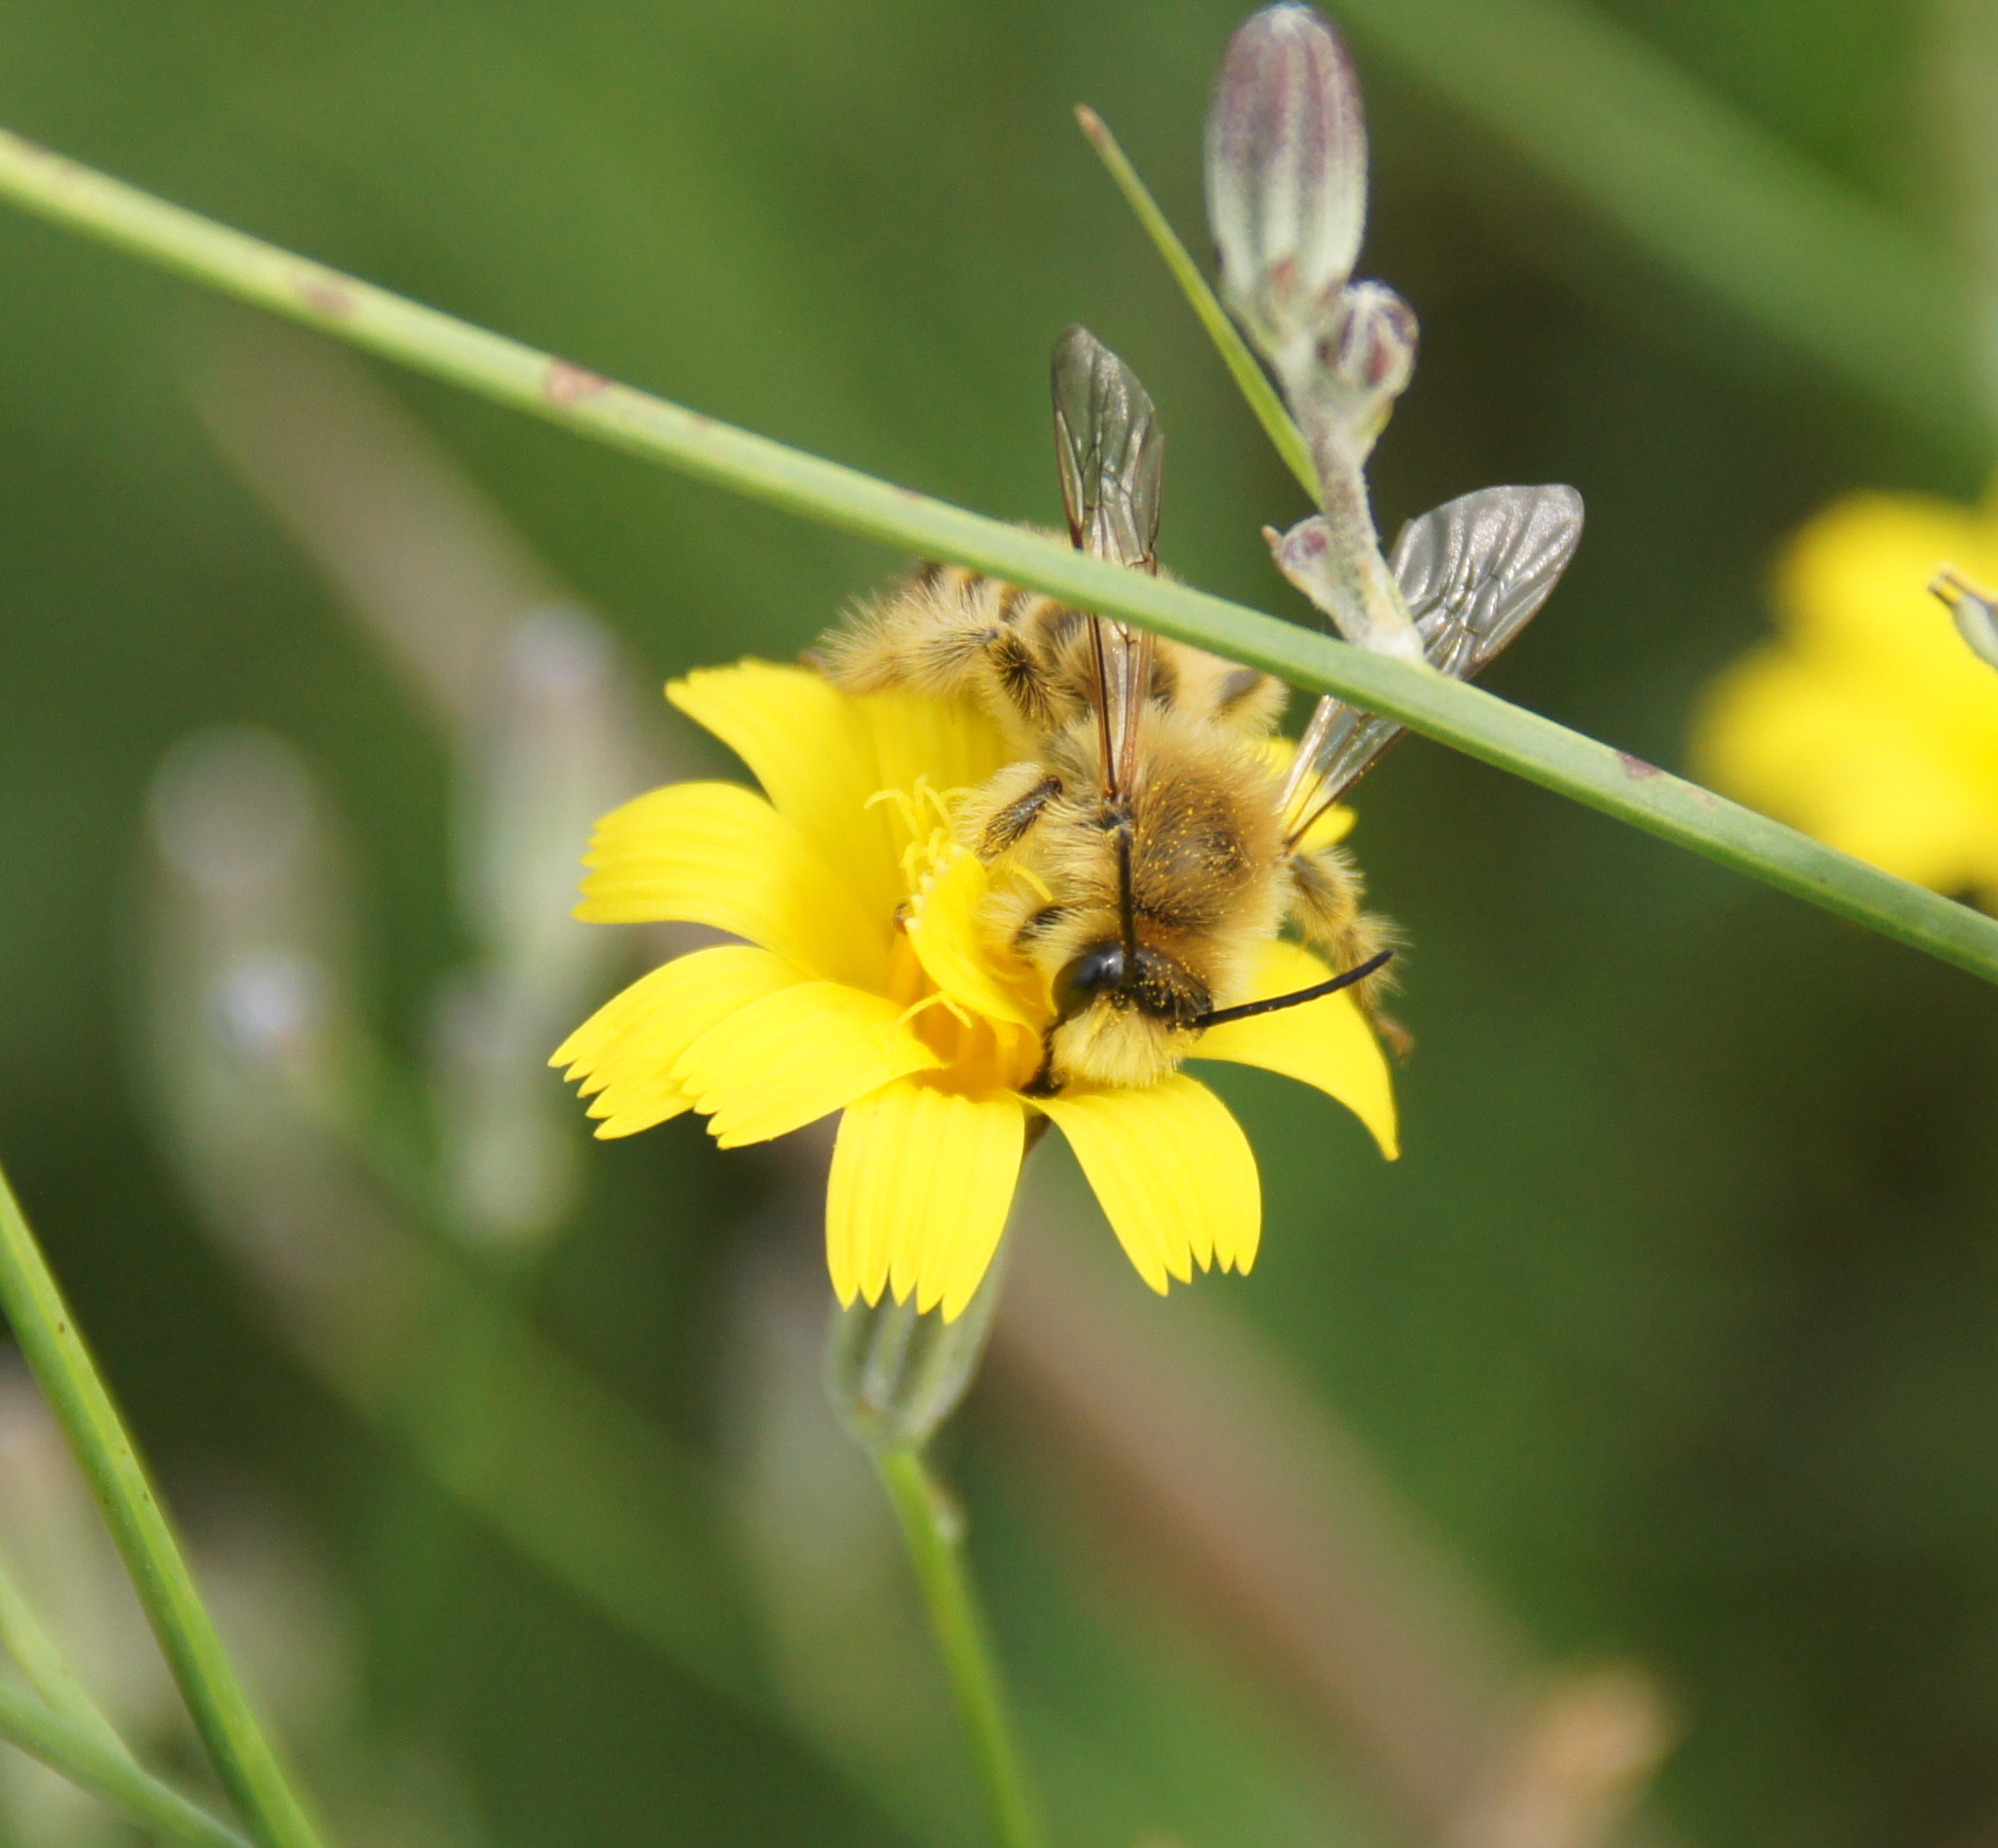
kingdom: Animalia
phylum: Arthropoda
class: Insecta
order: Hymenoptera
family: Melittidae
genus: Dasypoda
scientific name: Dasypoda hirtipes
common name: Pantaloon bee
